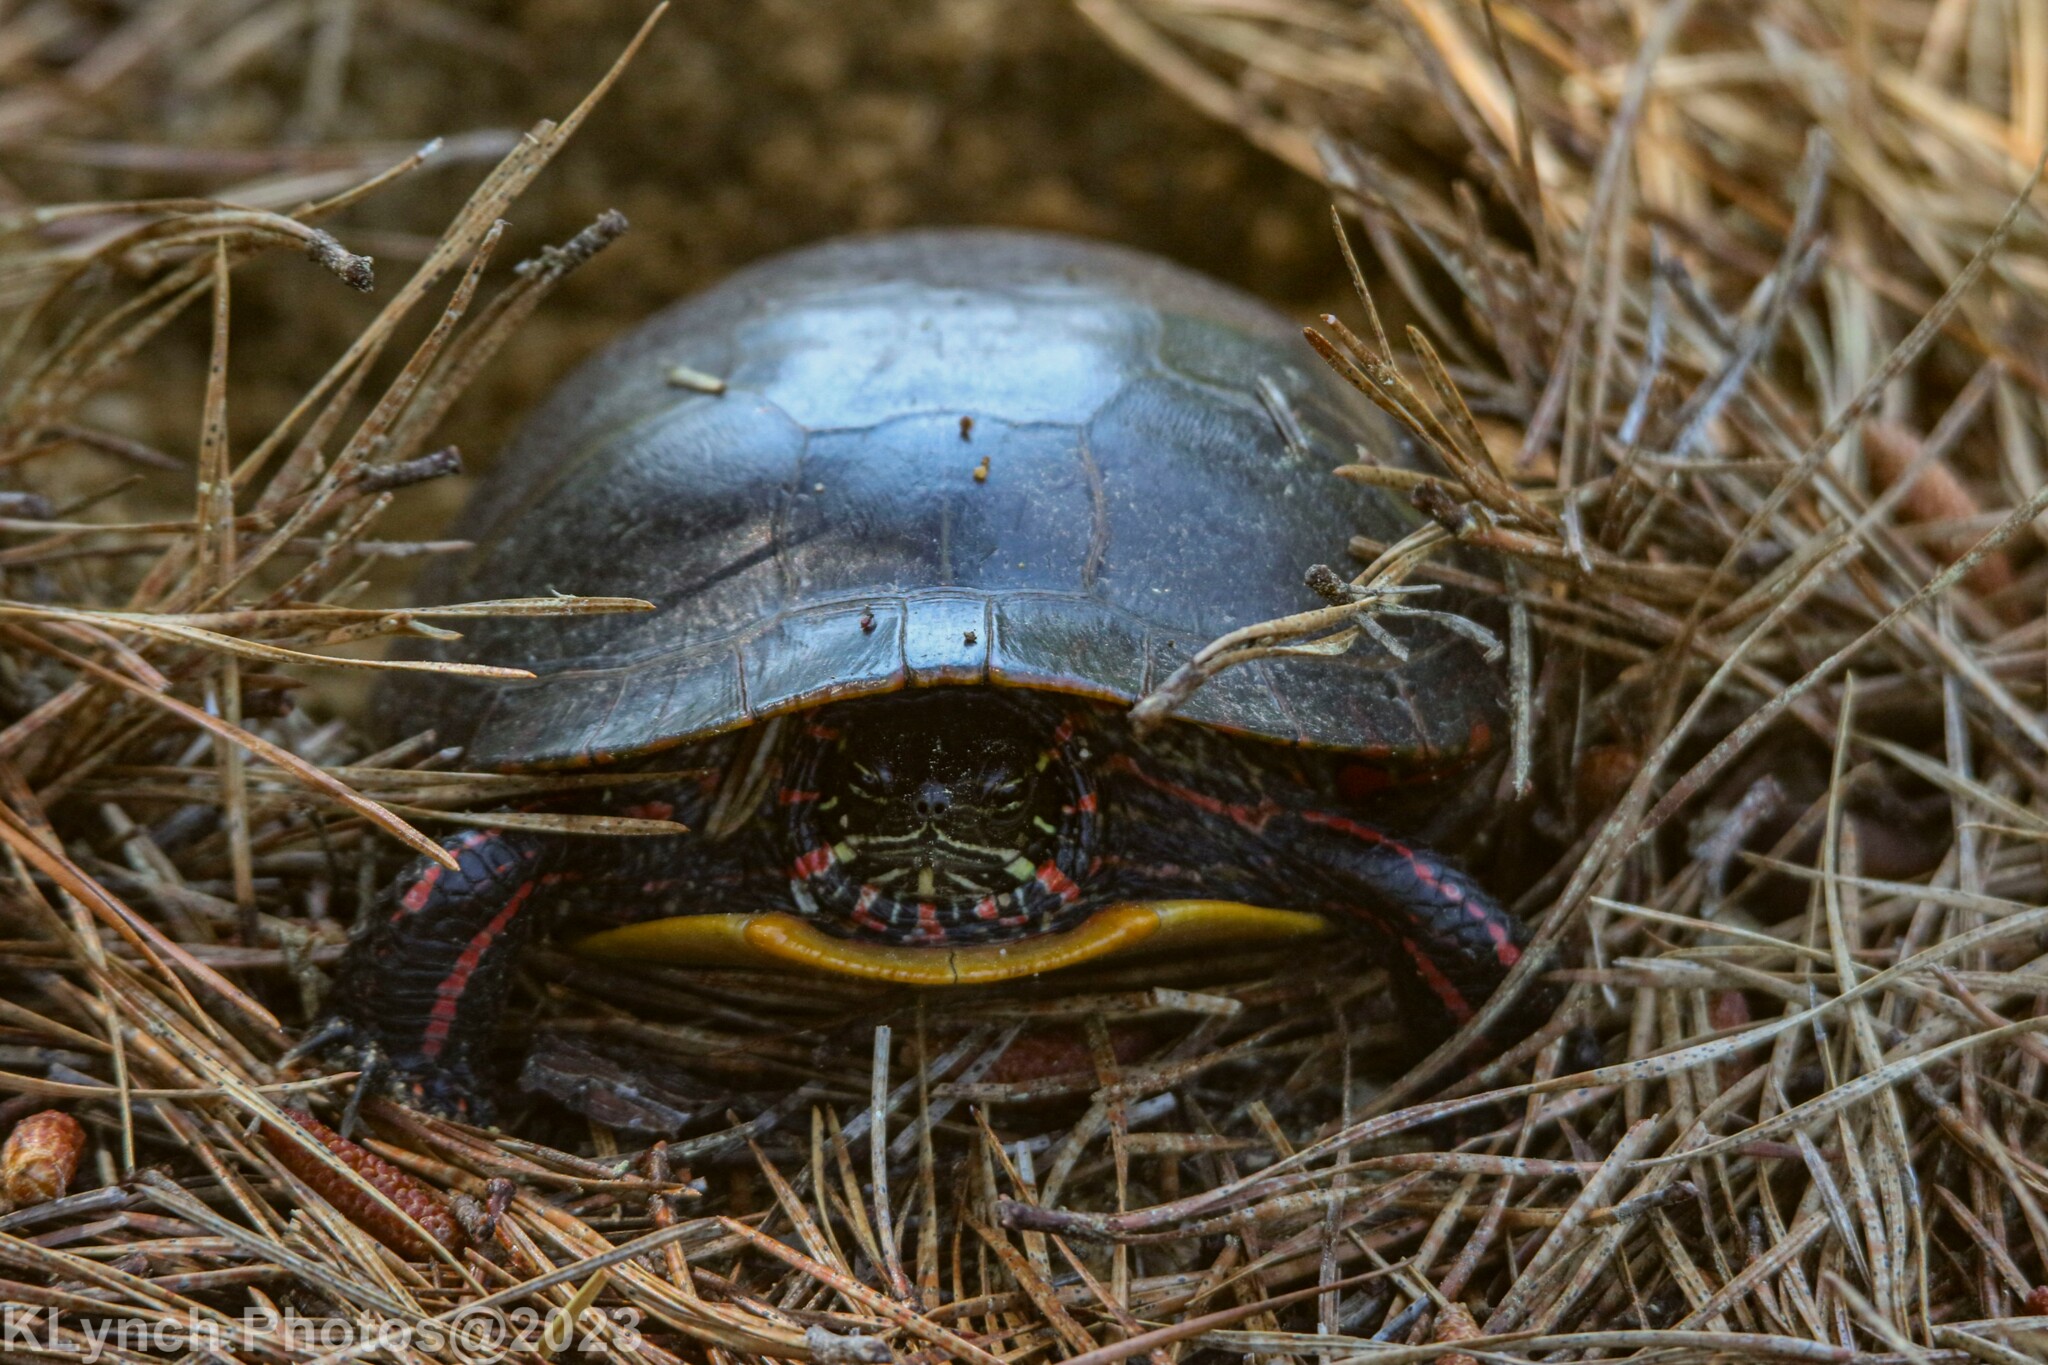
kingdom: Animalia
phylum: Chordata
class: Testudines
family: Emydidae
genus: Chrysemys
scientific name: Chrysemys picta
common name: Painted turtle
